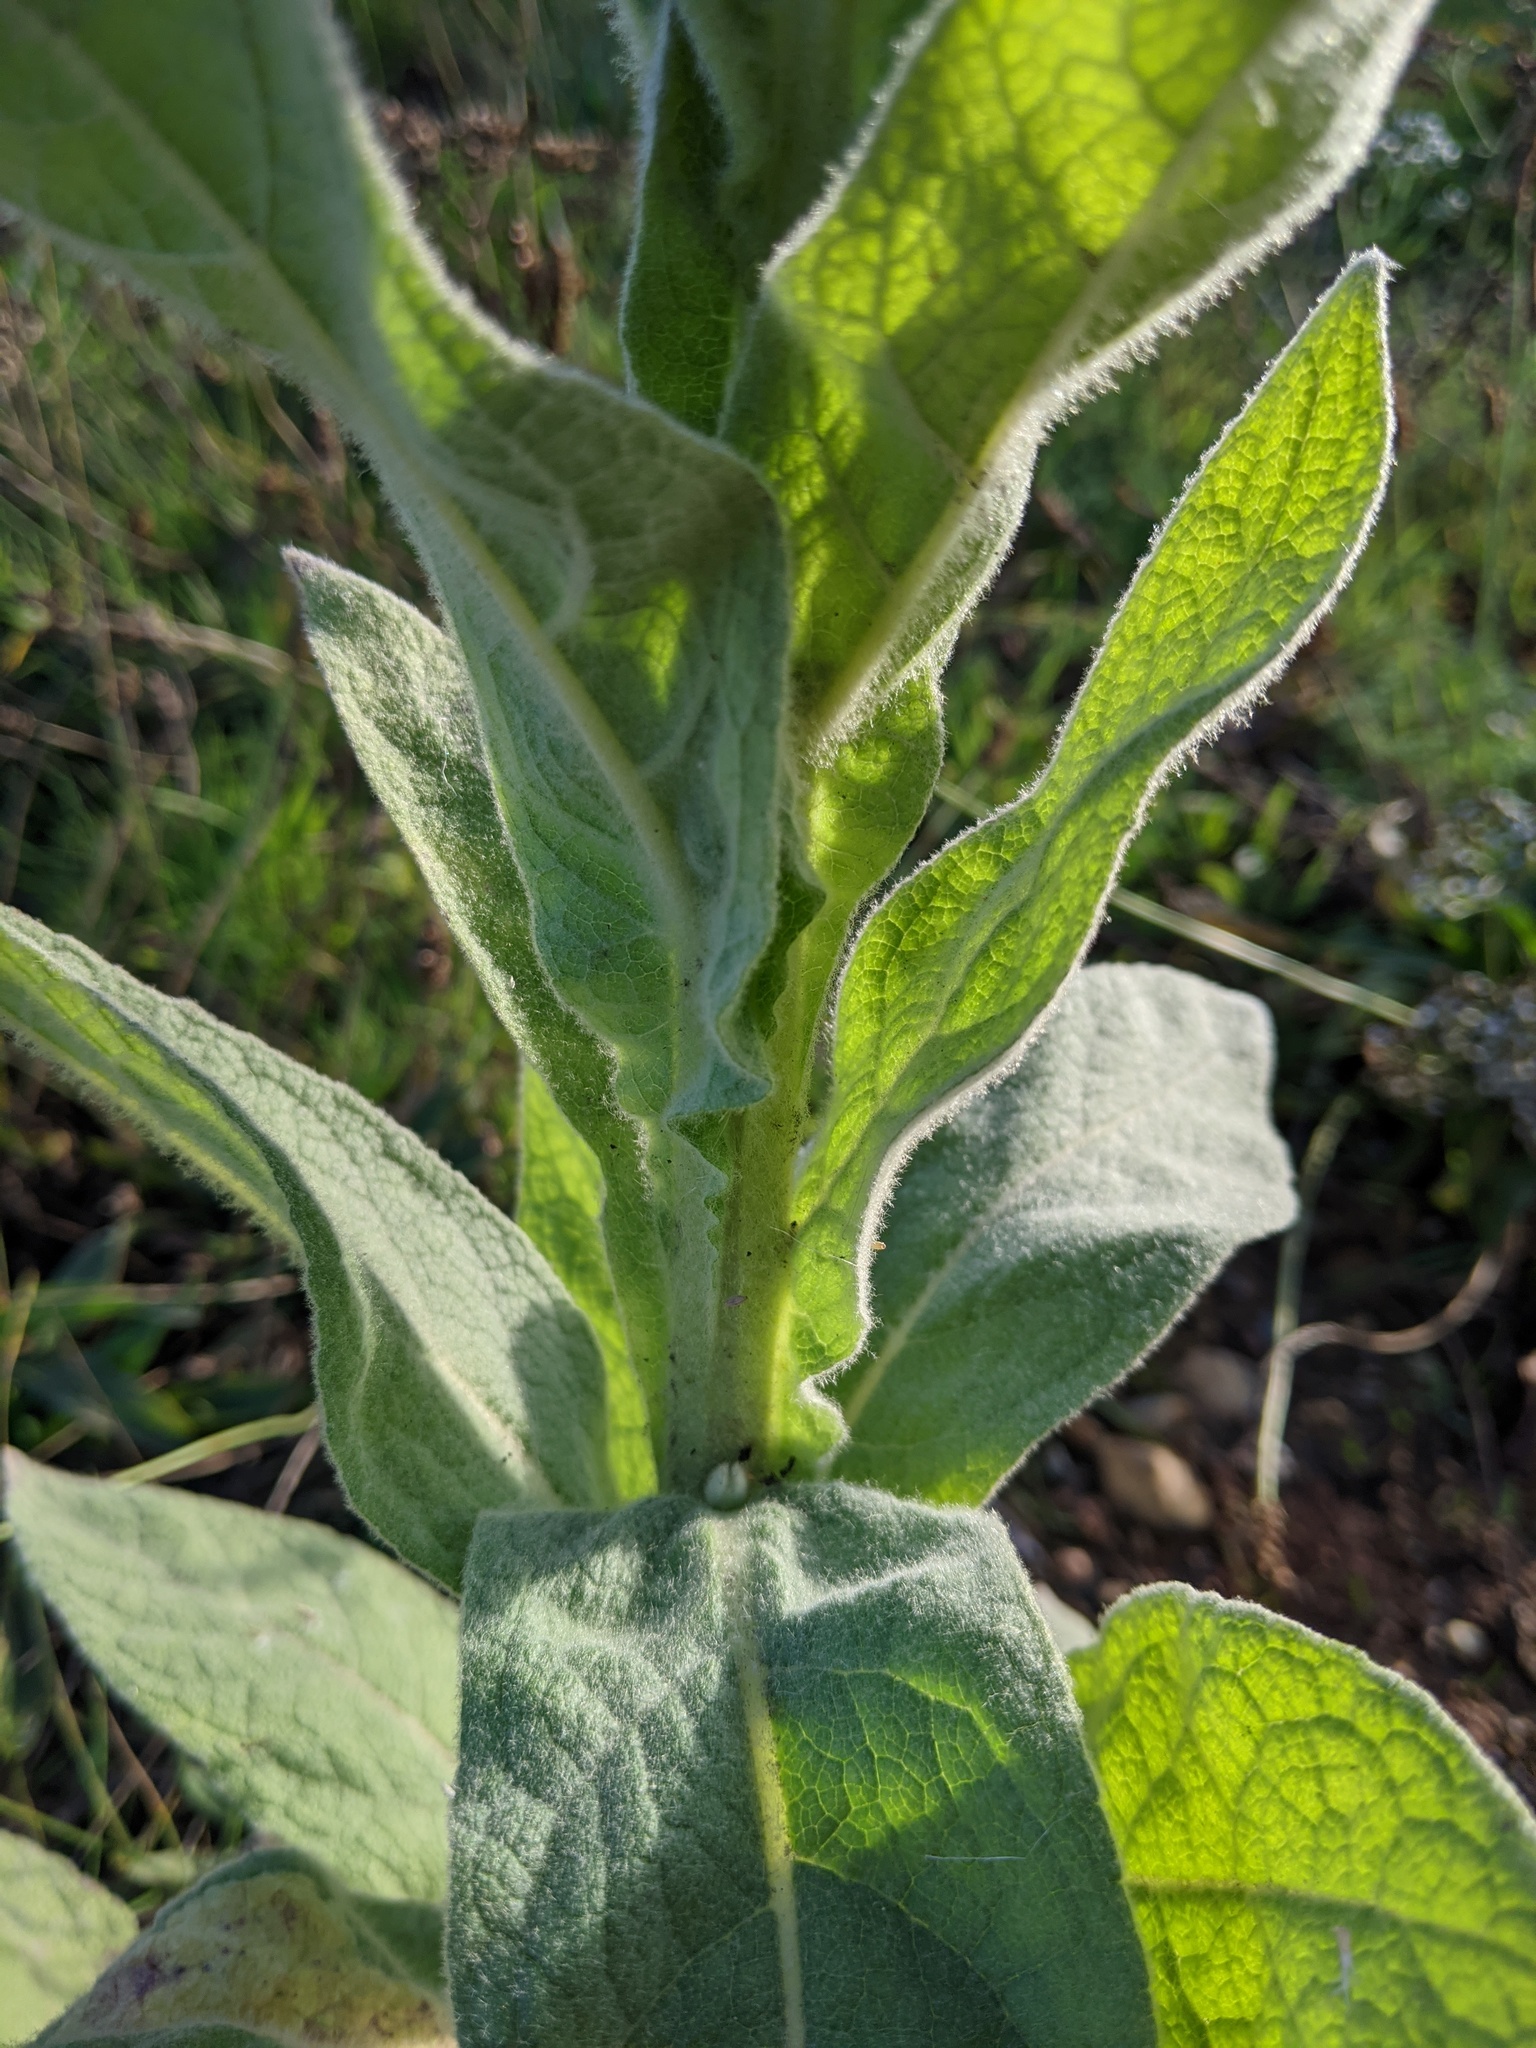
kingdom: Plantae
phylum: Tracheophyta
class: Magnoliopsida
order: Lamiales
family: Scrophulariaceae
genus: Verbascum
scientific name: Verbascum thapsus
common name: Common mullein
